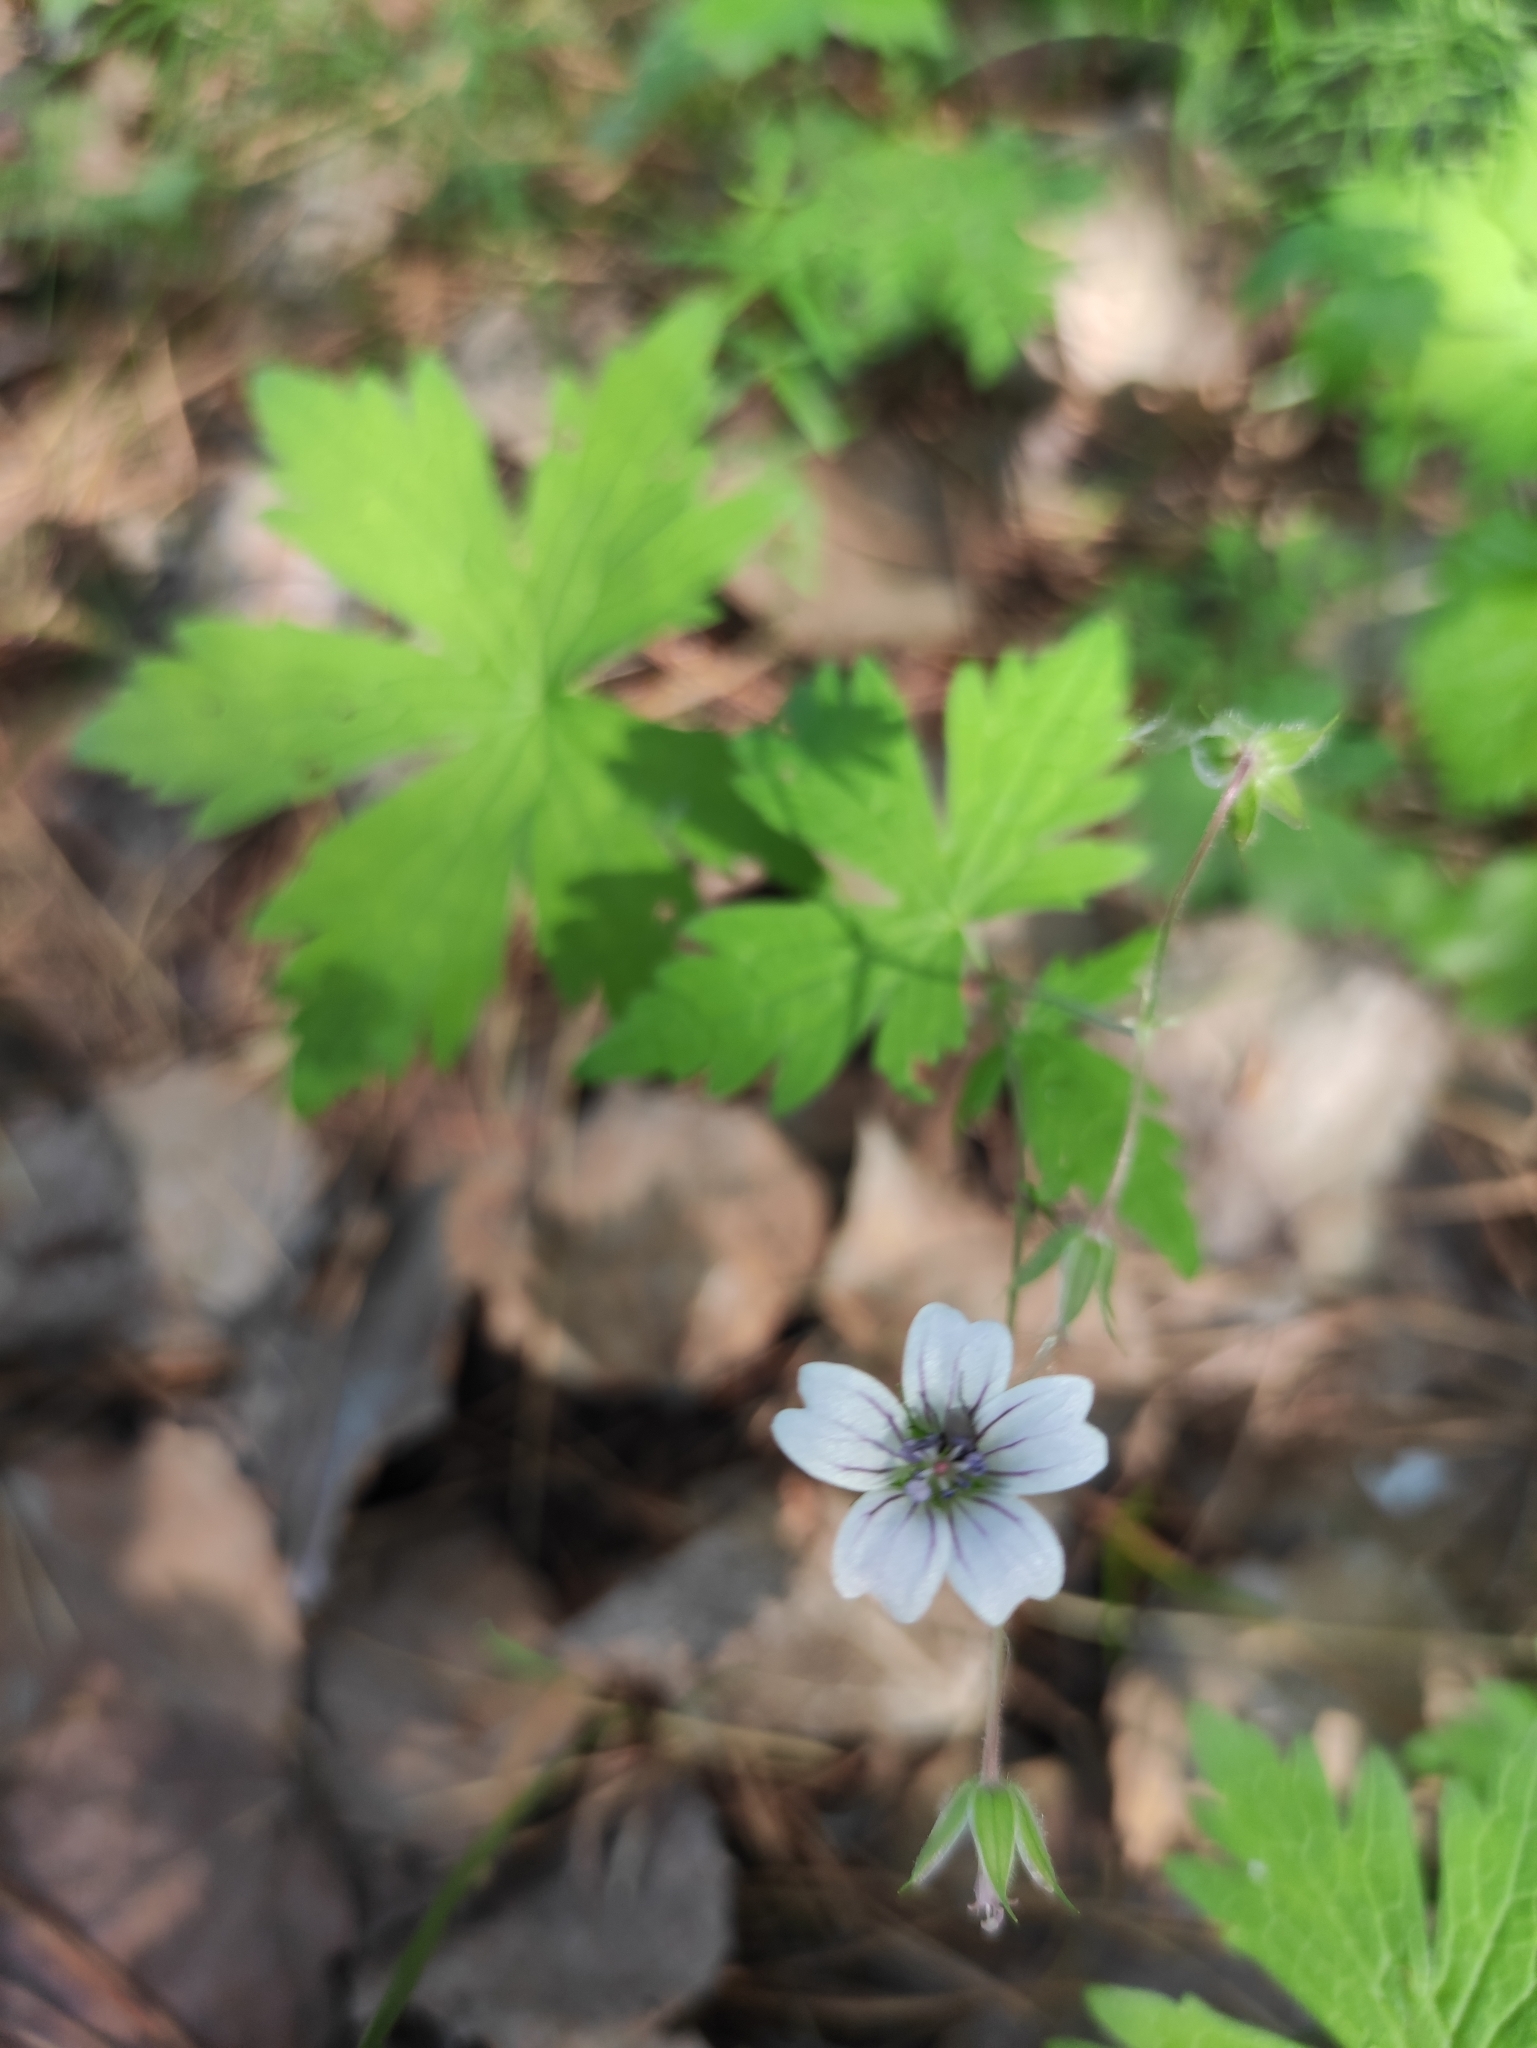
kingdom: Plantae
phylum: Tracheophyta
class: Magnoliopsida
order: Geraniales
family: Geraniaceae
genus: Geranium
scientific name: Geranium sylvaticum
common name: Wood crane's-bill
